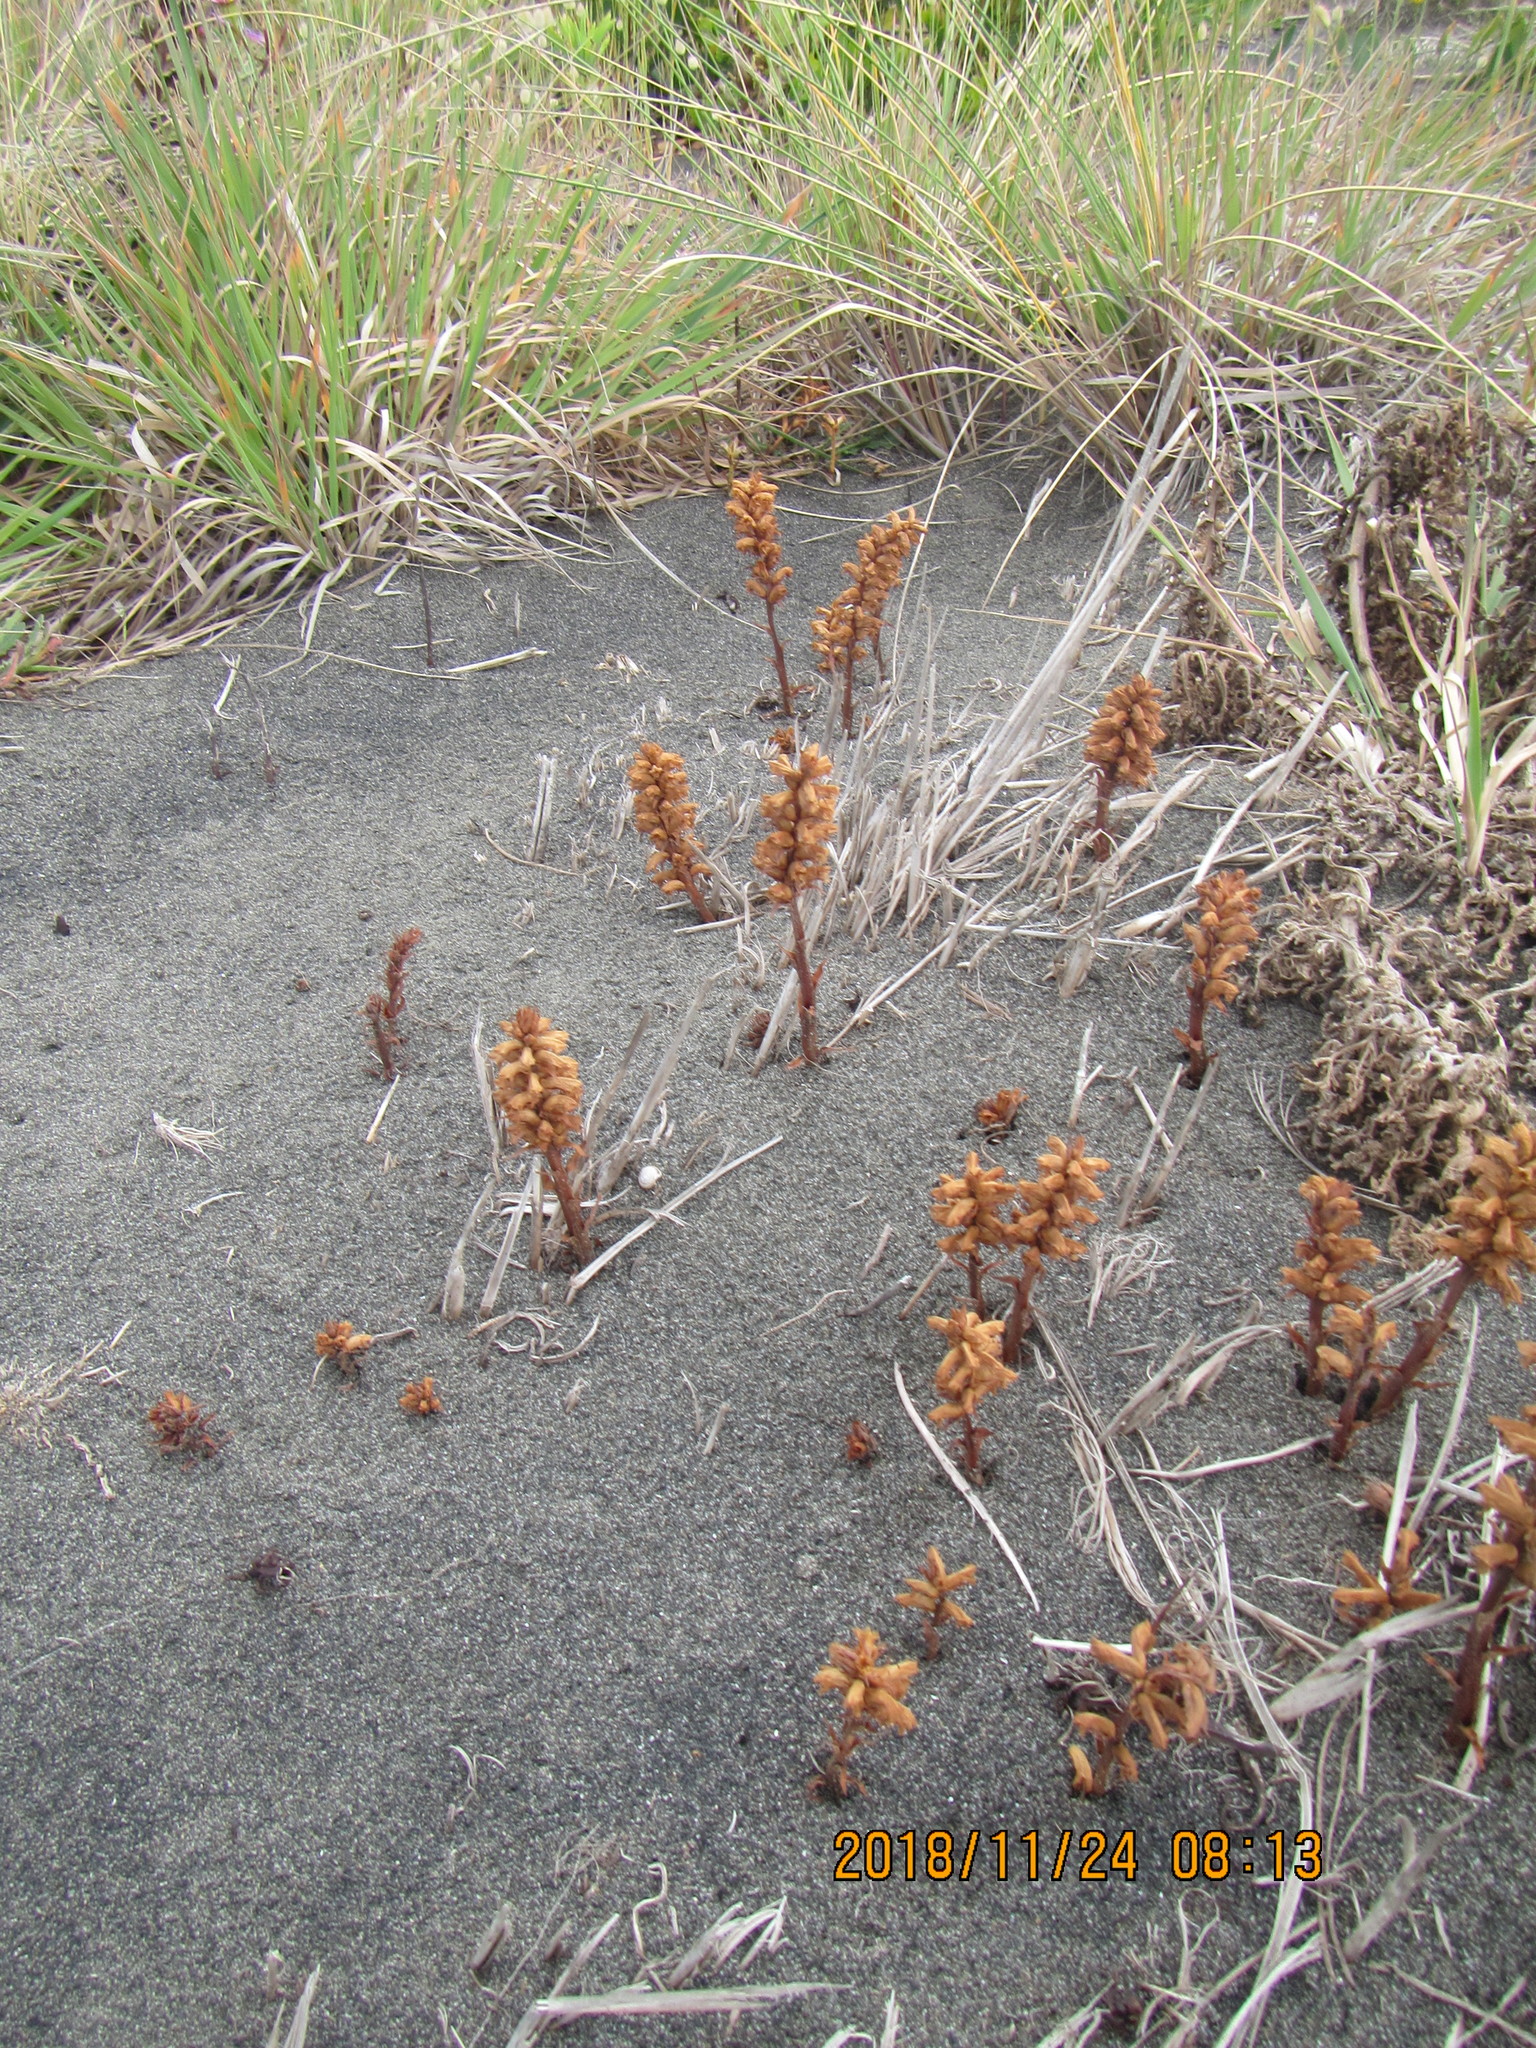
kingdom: Plantae
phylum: Tracheophyta
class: Magnoliopsida
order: Lamiales
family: Orobanchaceae
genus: Orobanche
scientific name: Orobanche minor
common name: Common broomrape
